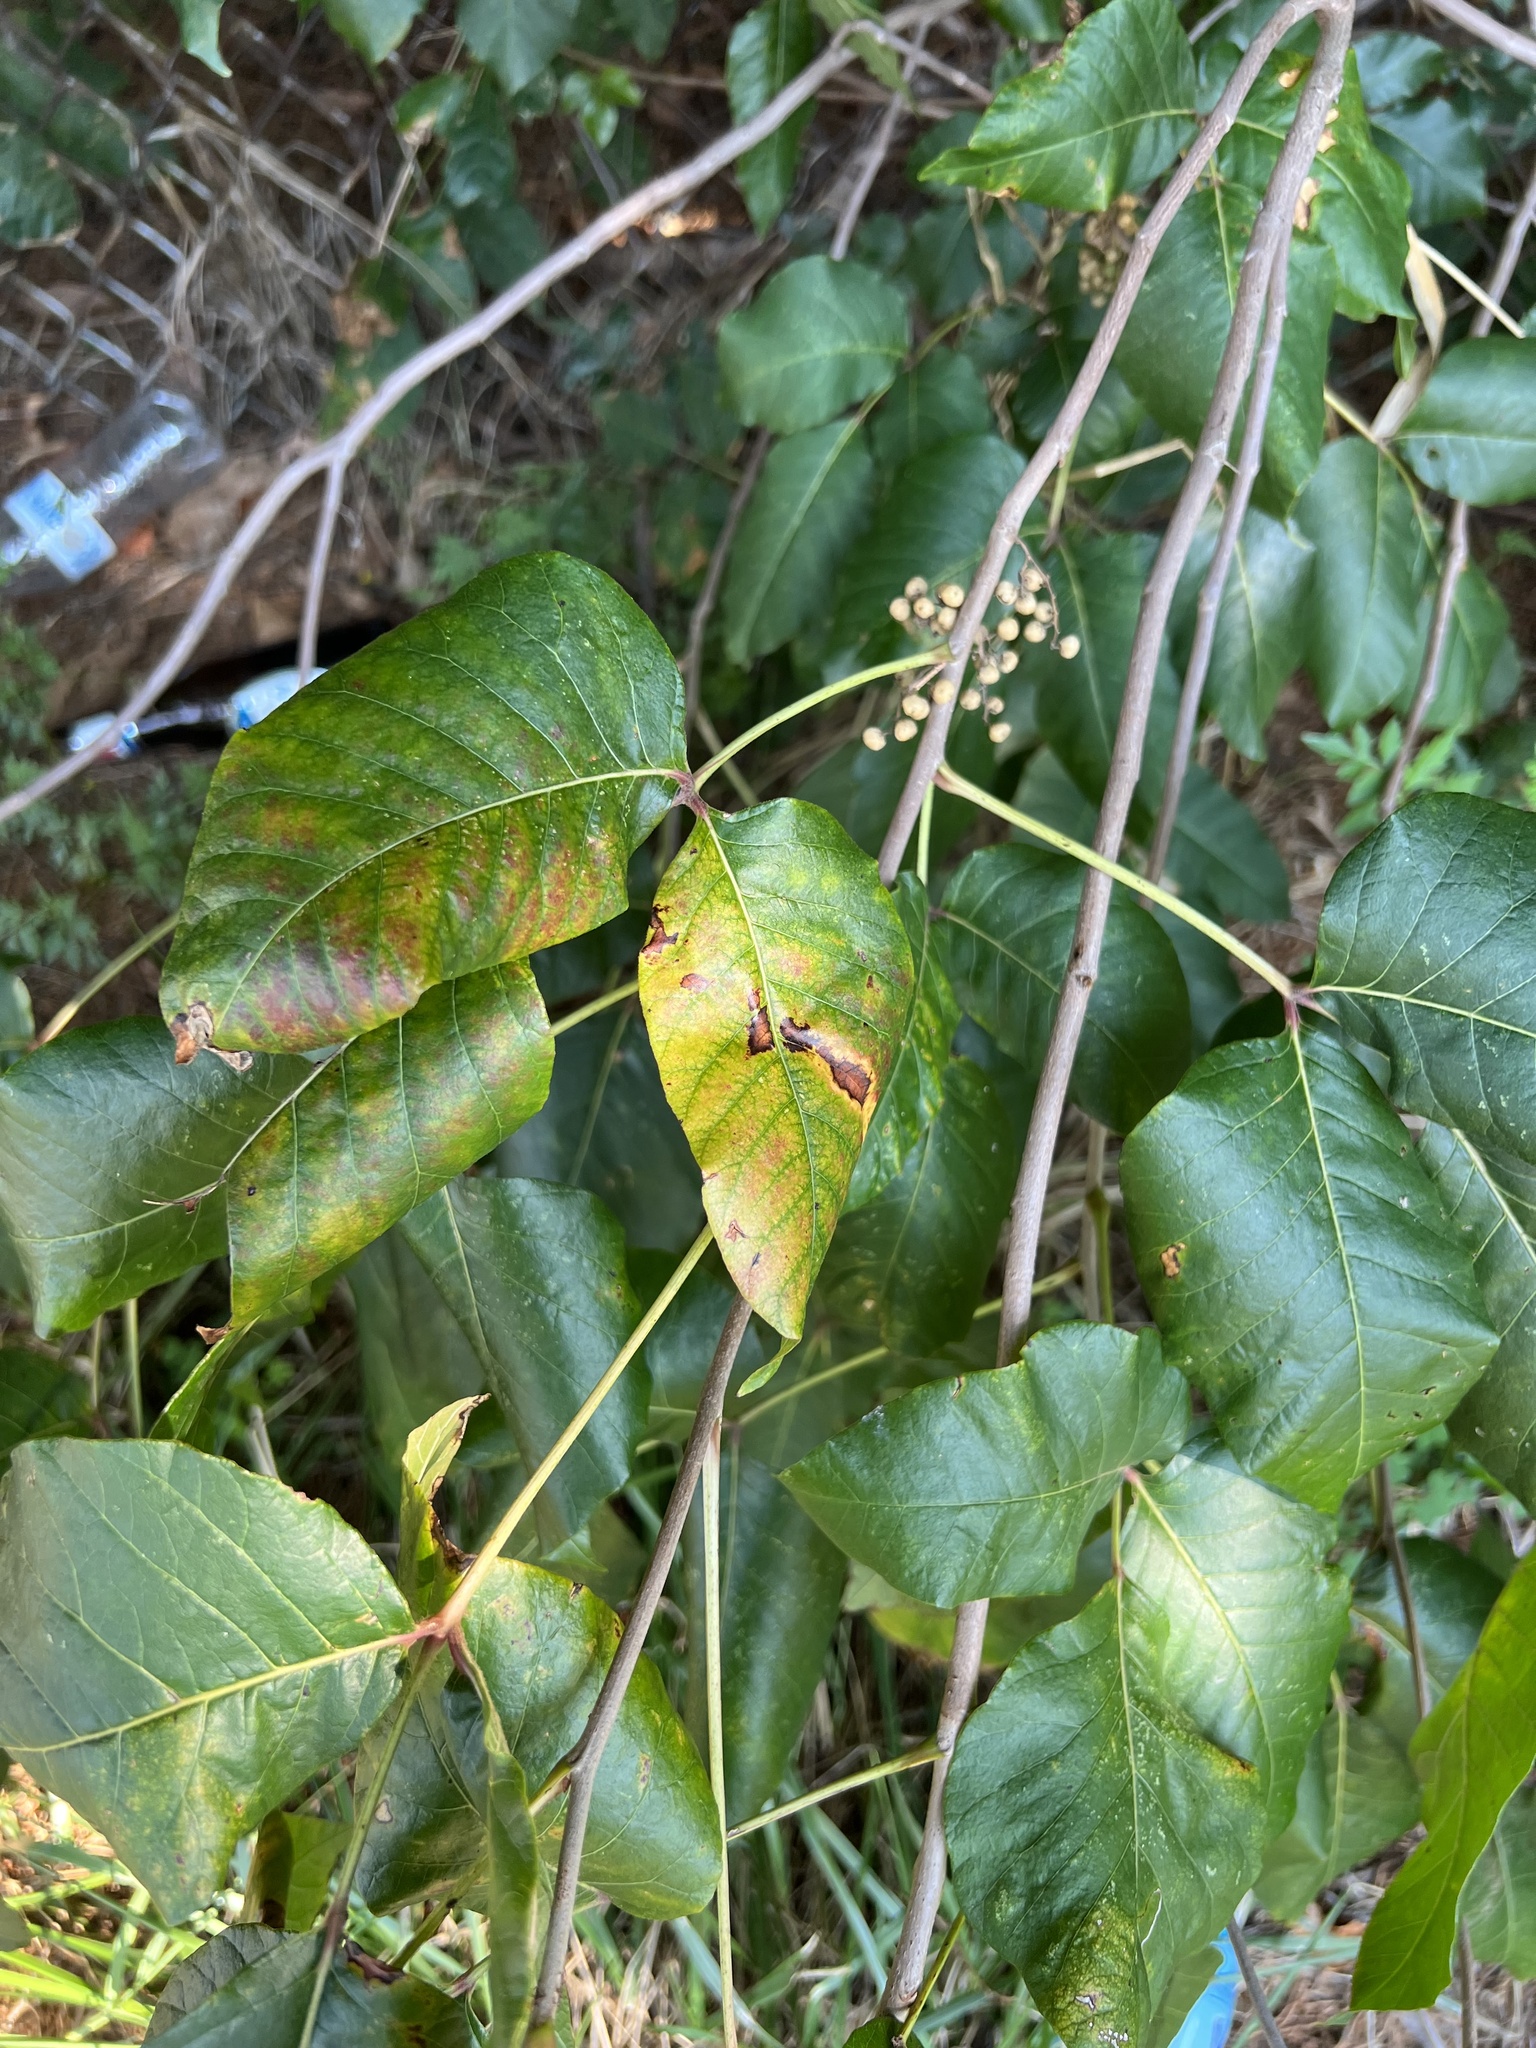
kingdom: Plantae
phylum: Tracheophyta
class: Magnoliopsida
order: Sapindales
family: Anacardiaceae
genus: Toxicodendron
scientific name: Toxicodendron radicans
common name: Poison ivy
